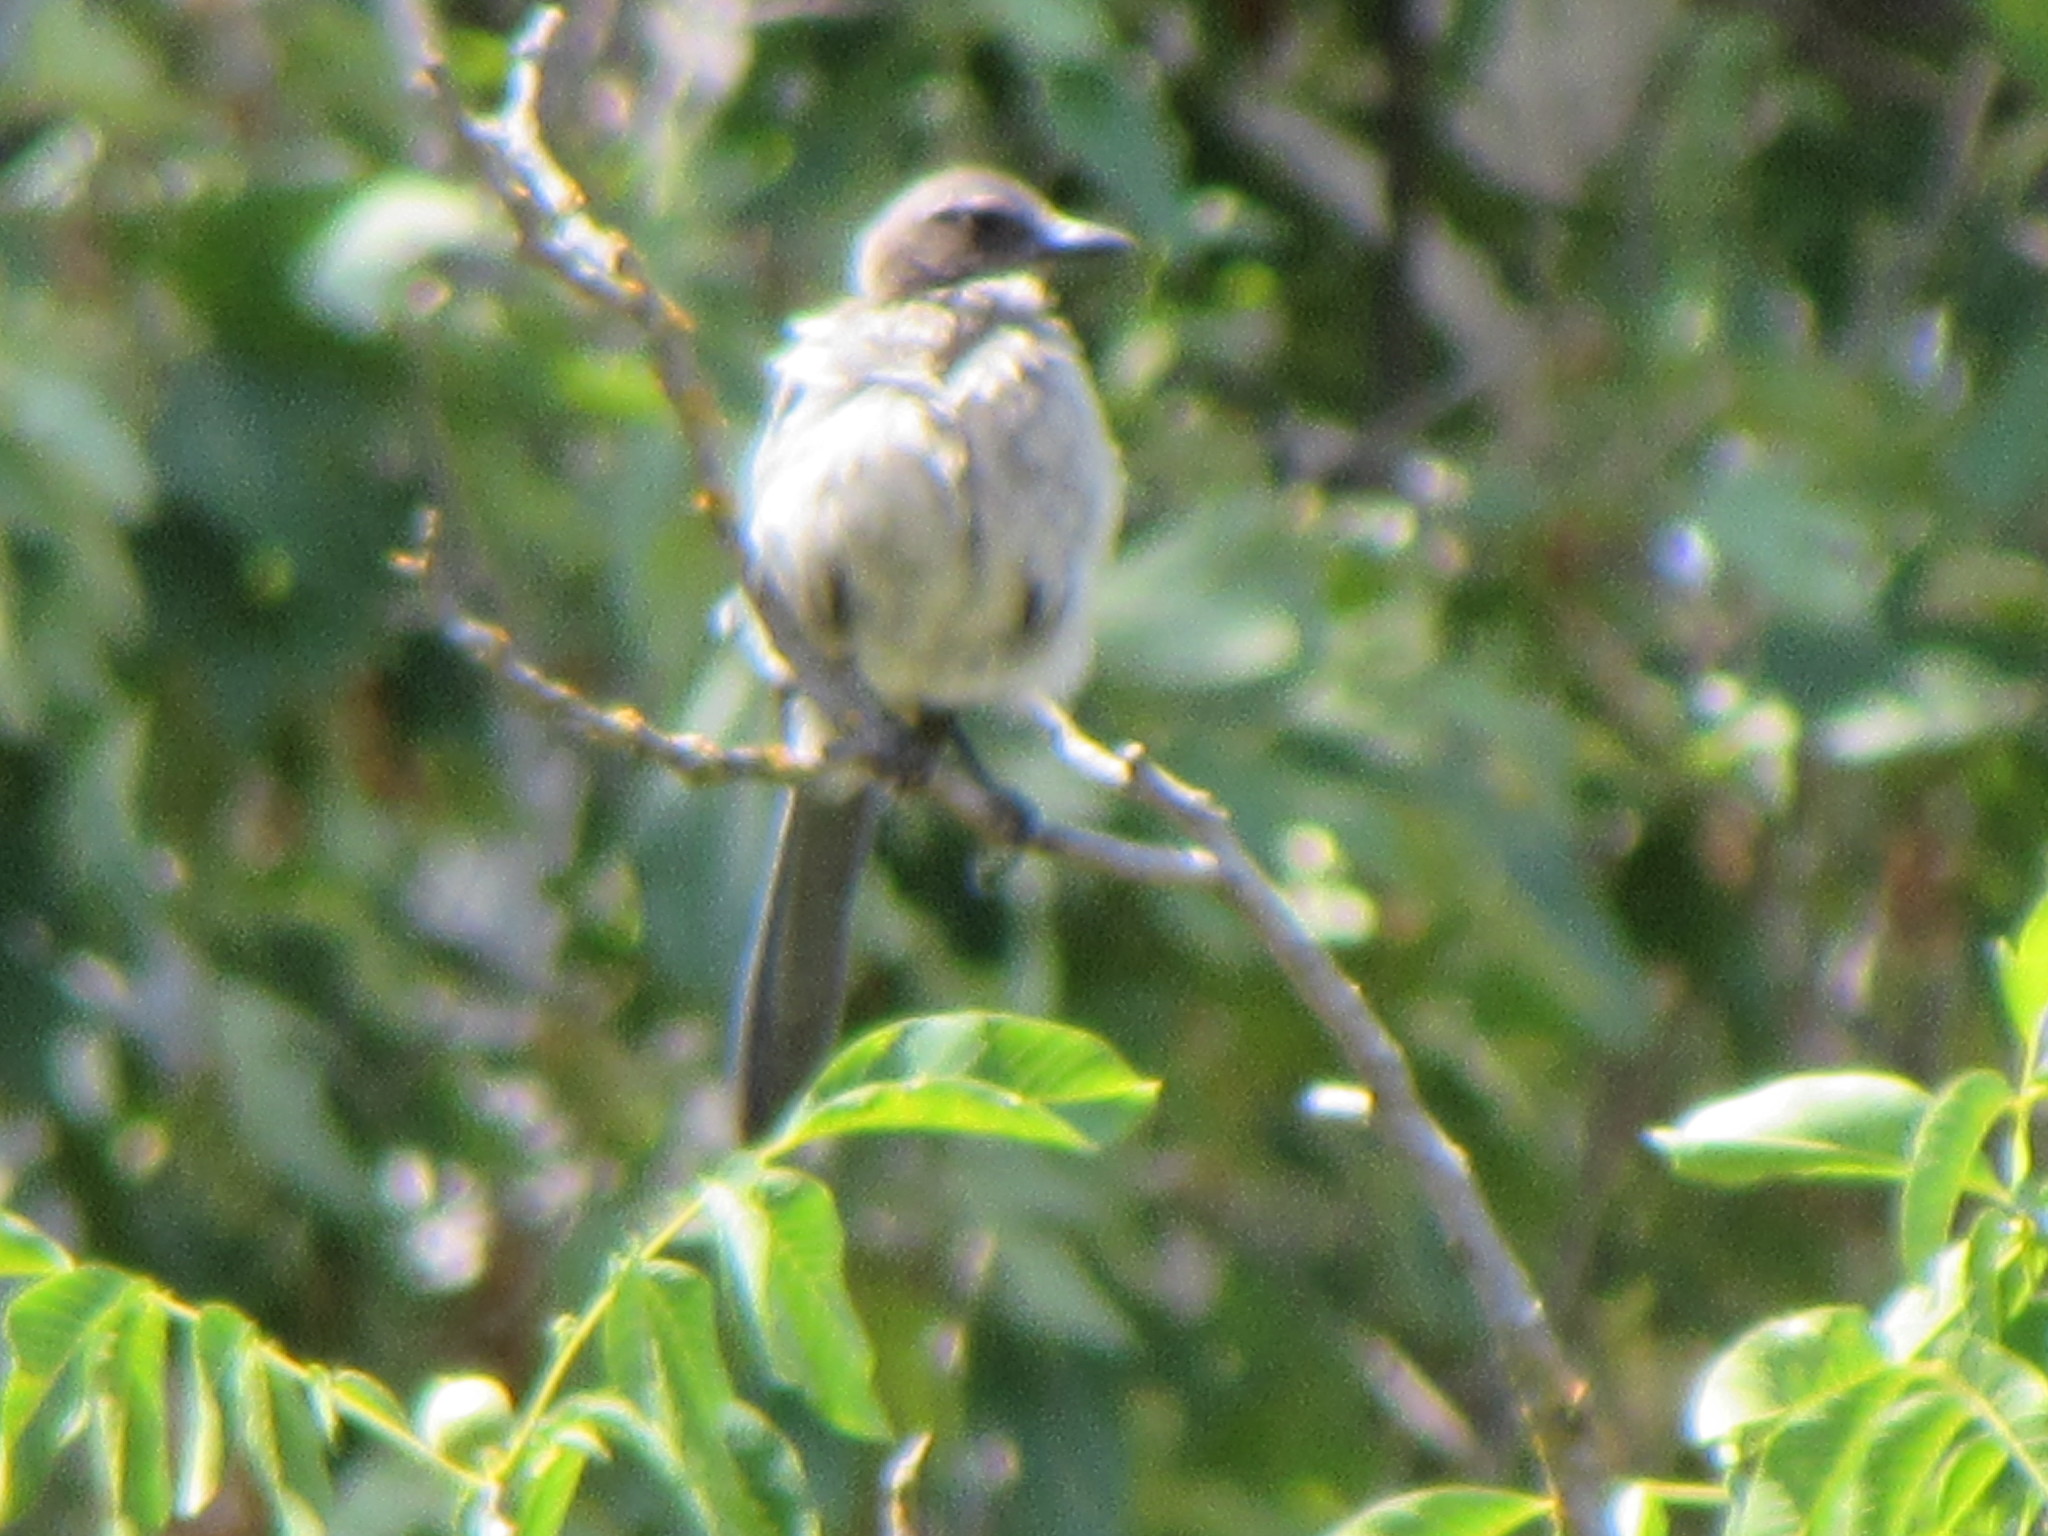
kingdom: Animalia
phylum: Chordata
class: Aves
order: Passeriformes
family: Corvidae
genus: Aphelocoma
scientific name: Aphelocoma californica
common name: California scrub-jay
